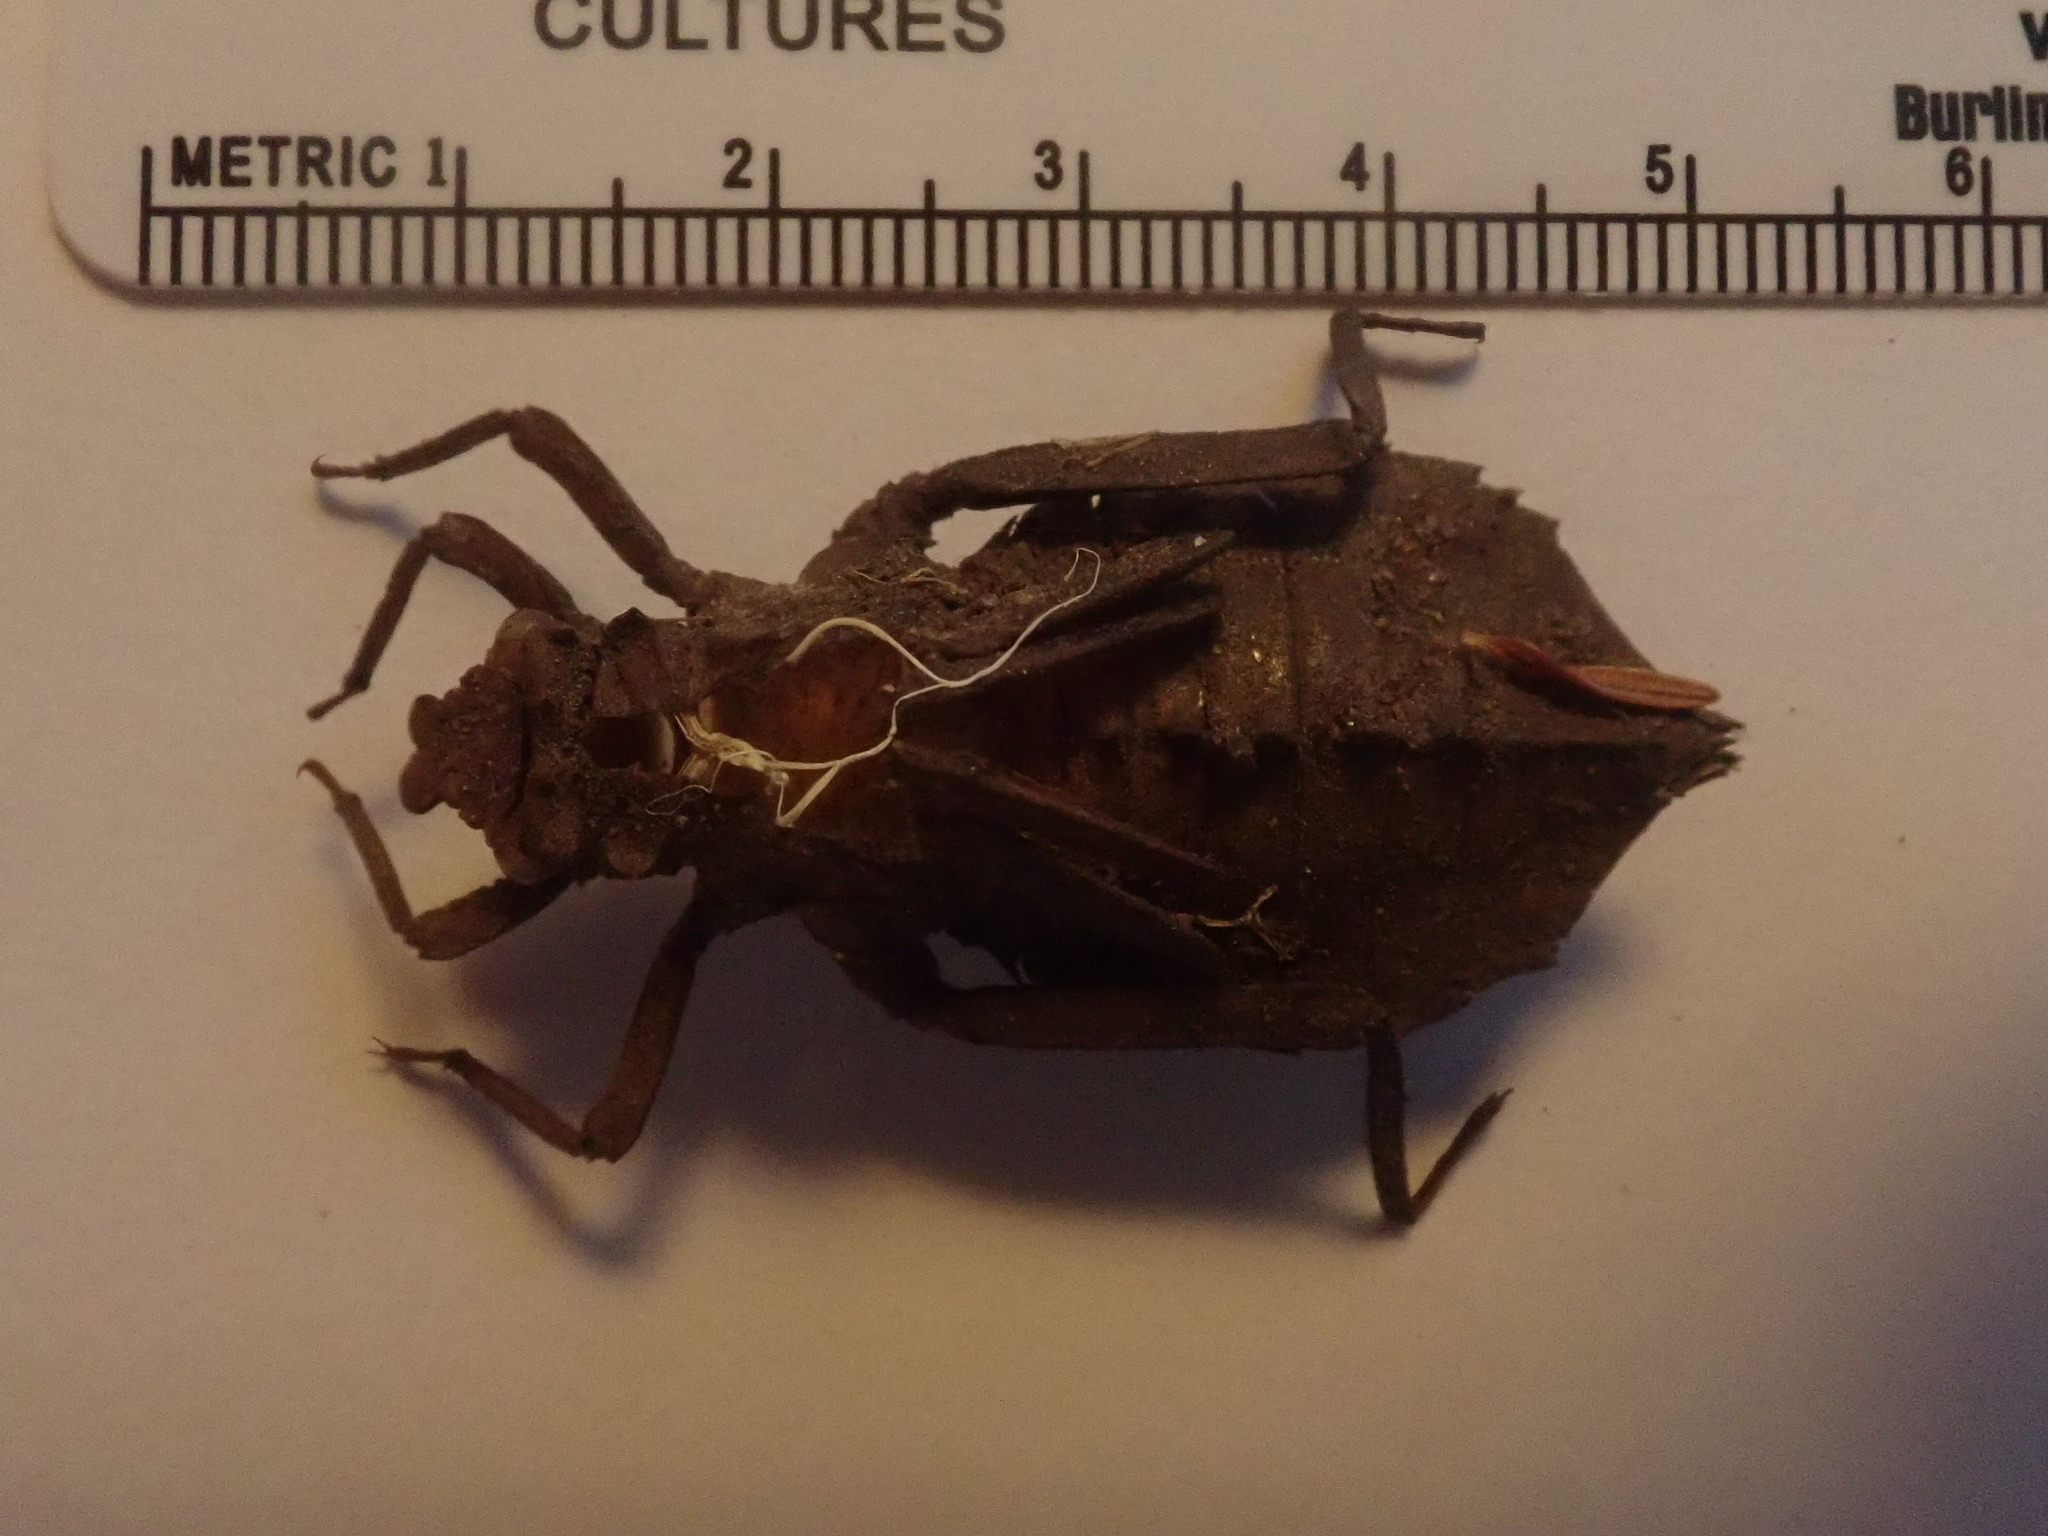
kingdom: Animalia
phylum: Arthropoda
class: Insecta
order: Odonata
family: Gomphidae
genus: Hagenius
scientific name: Hagenius brevistylus
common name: Dragonhunter
